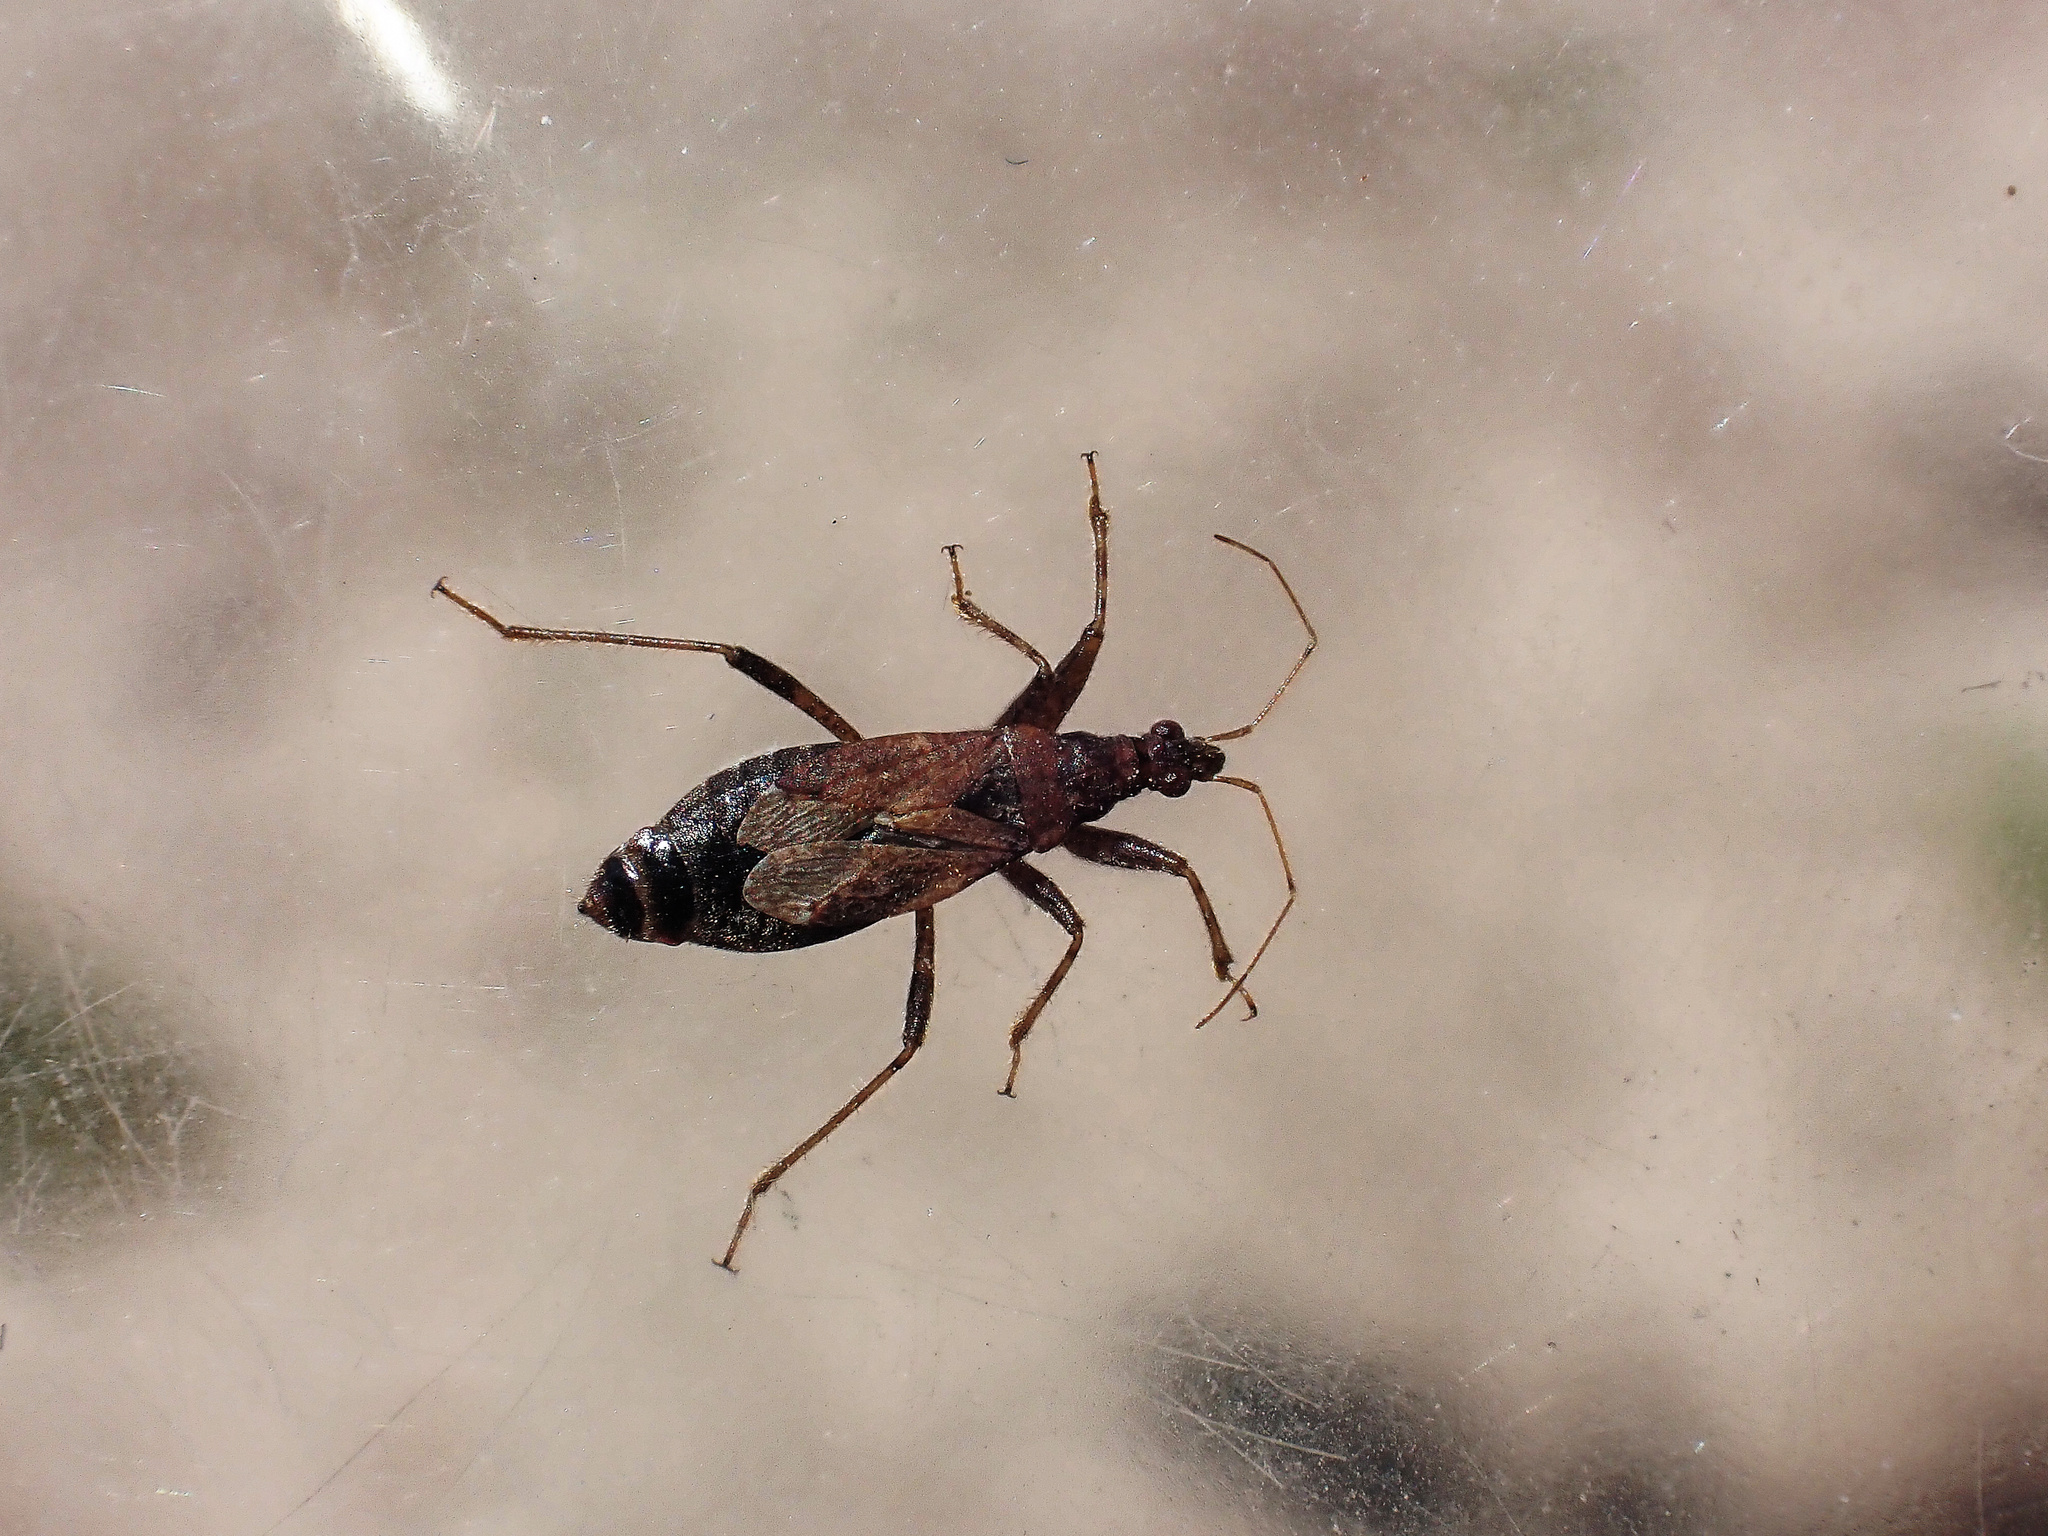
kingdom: Animalia
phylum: Arthropoda
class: Insecta
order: Hemiptera
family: Nabidae
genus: Himacerus
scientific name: Himacerus mirmicoides
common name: Ant damsel bug
